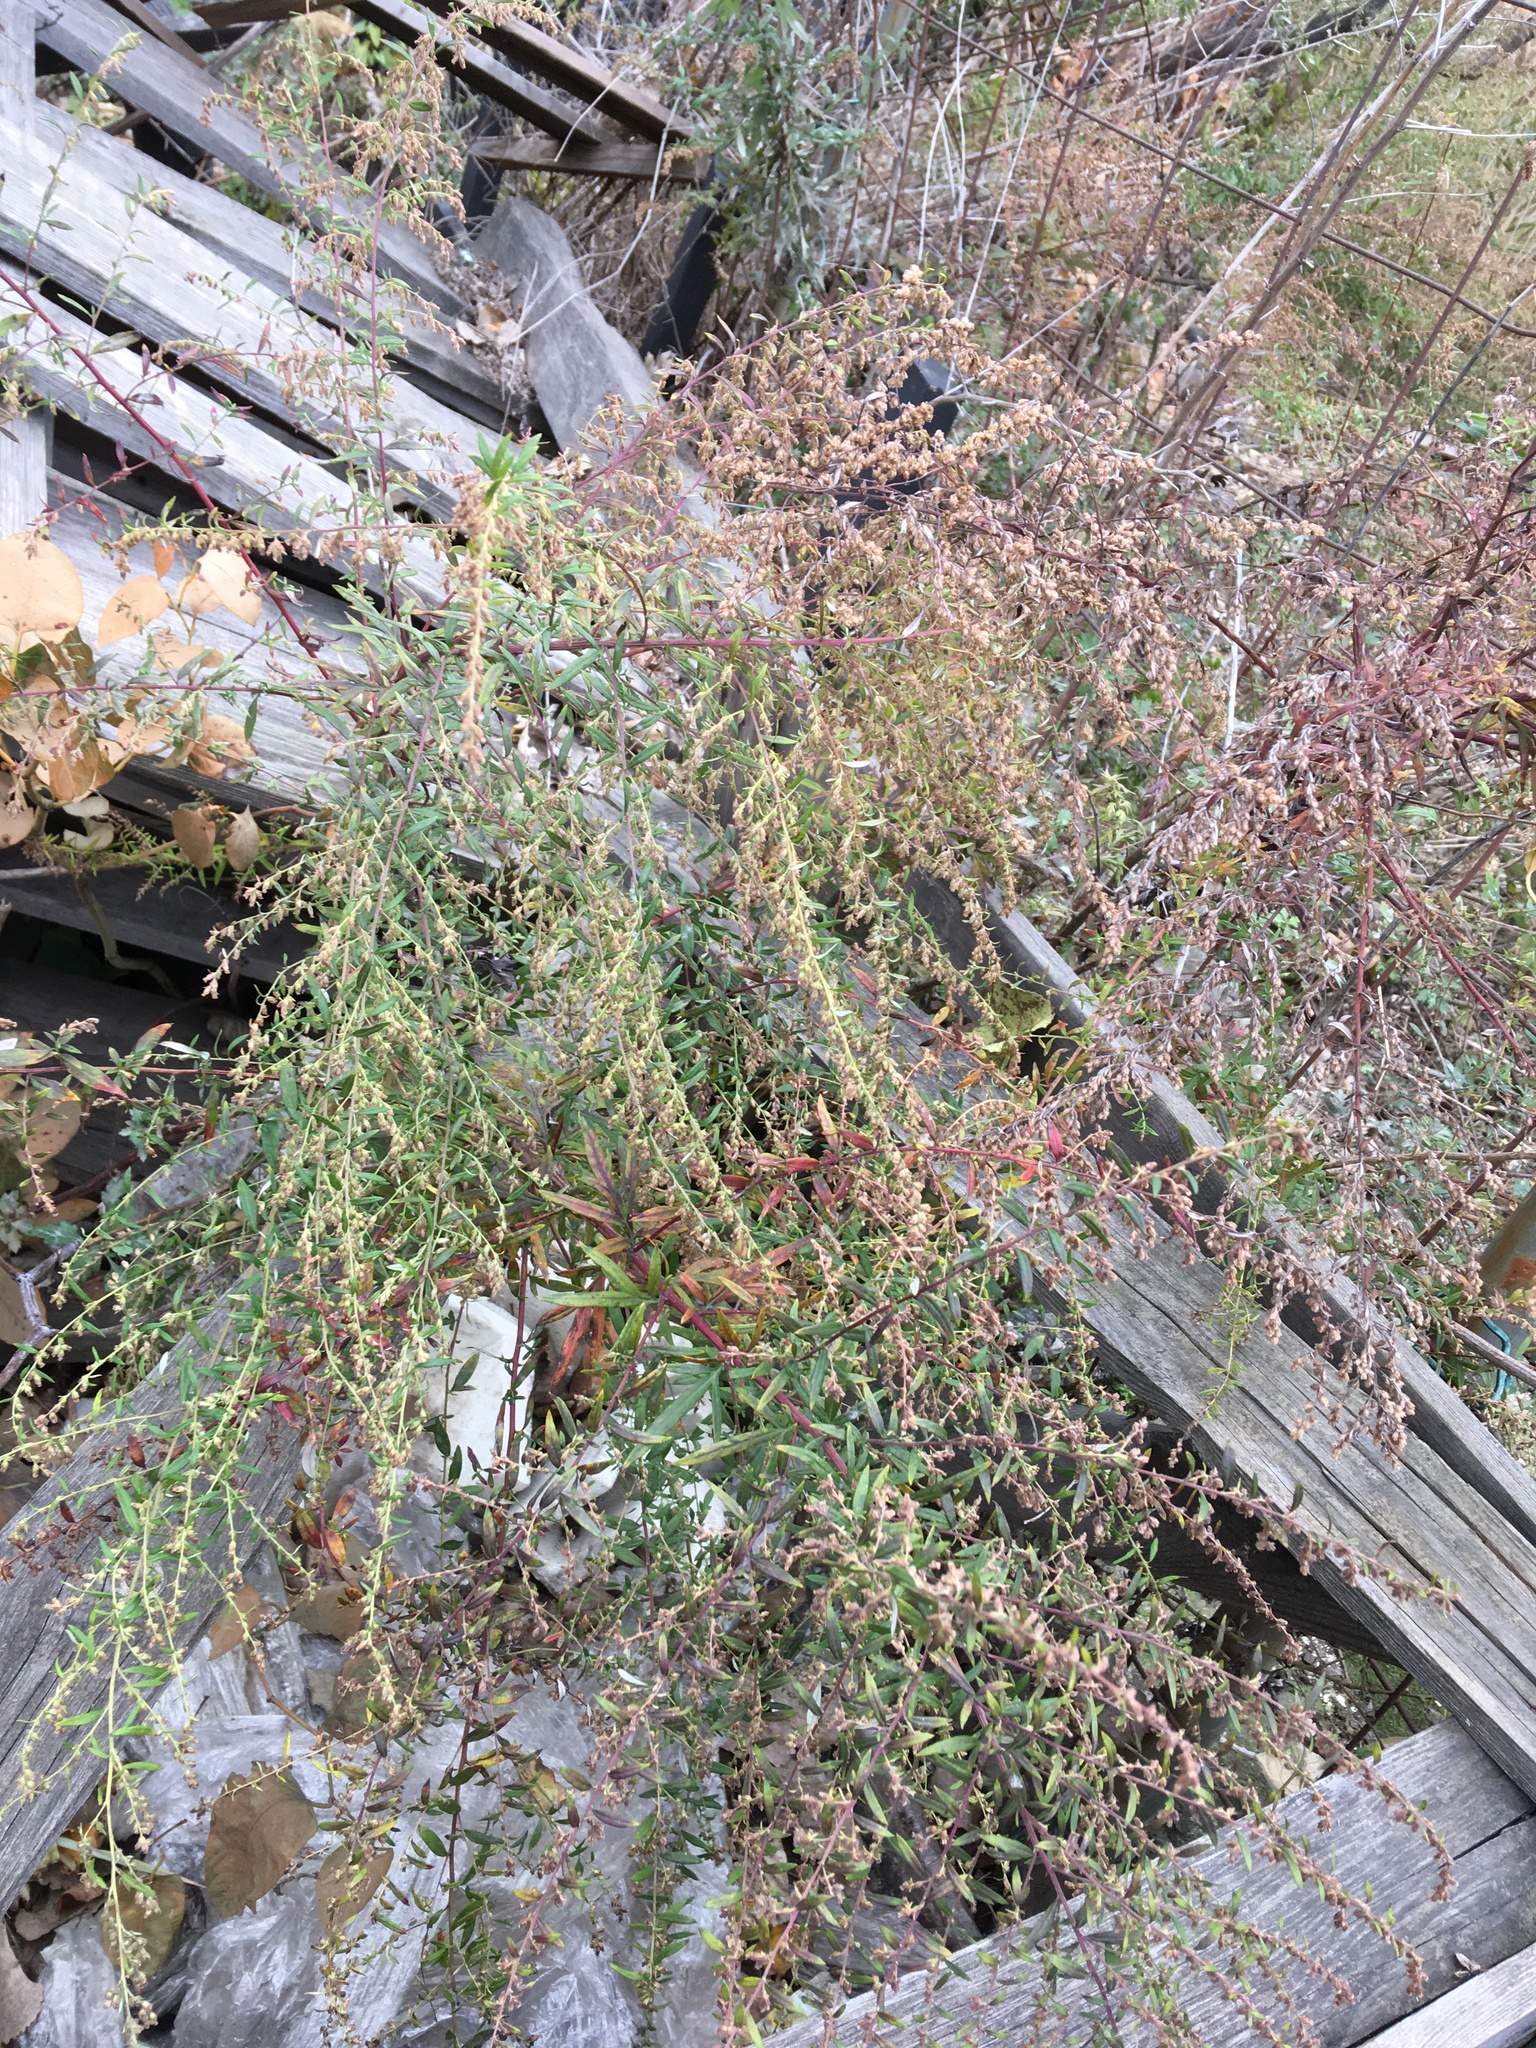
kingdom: Plantae
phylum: Tracheophyta
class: Magnoliopsida
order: Asterales
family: Asteraceae
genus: Artemisia
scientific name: Artemisia vulgaris
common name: Mugwort
